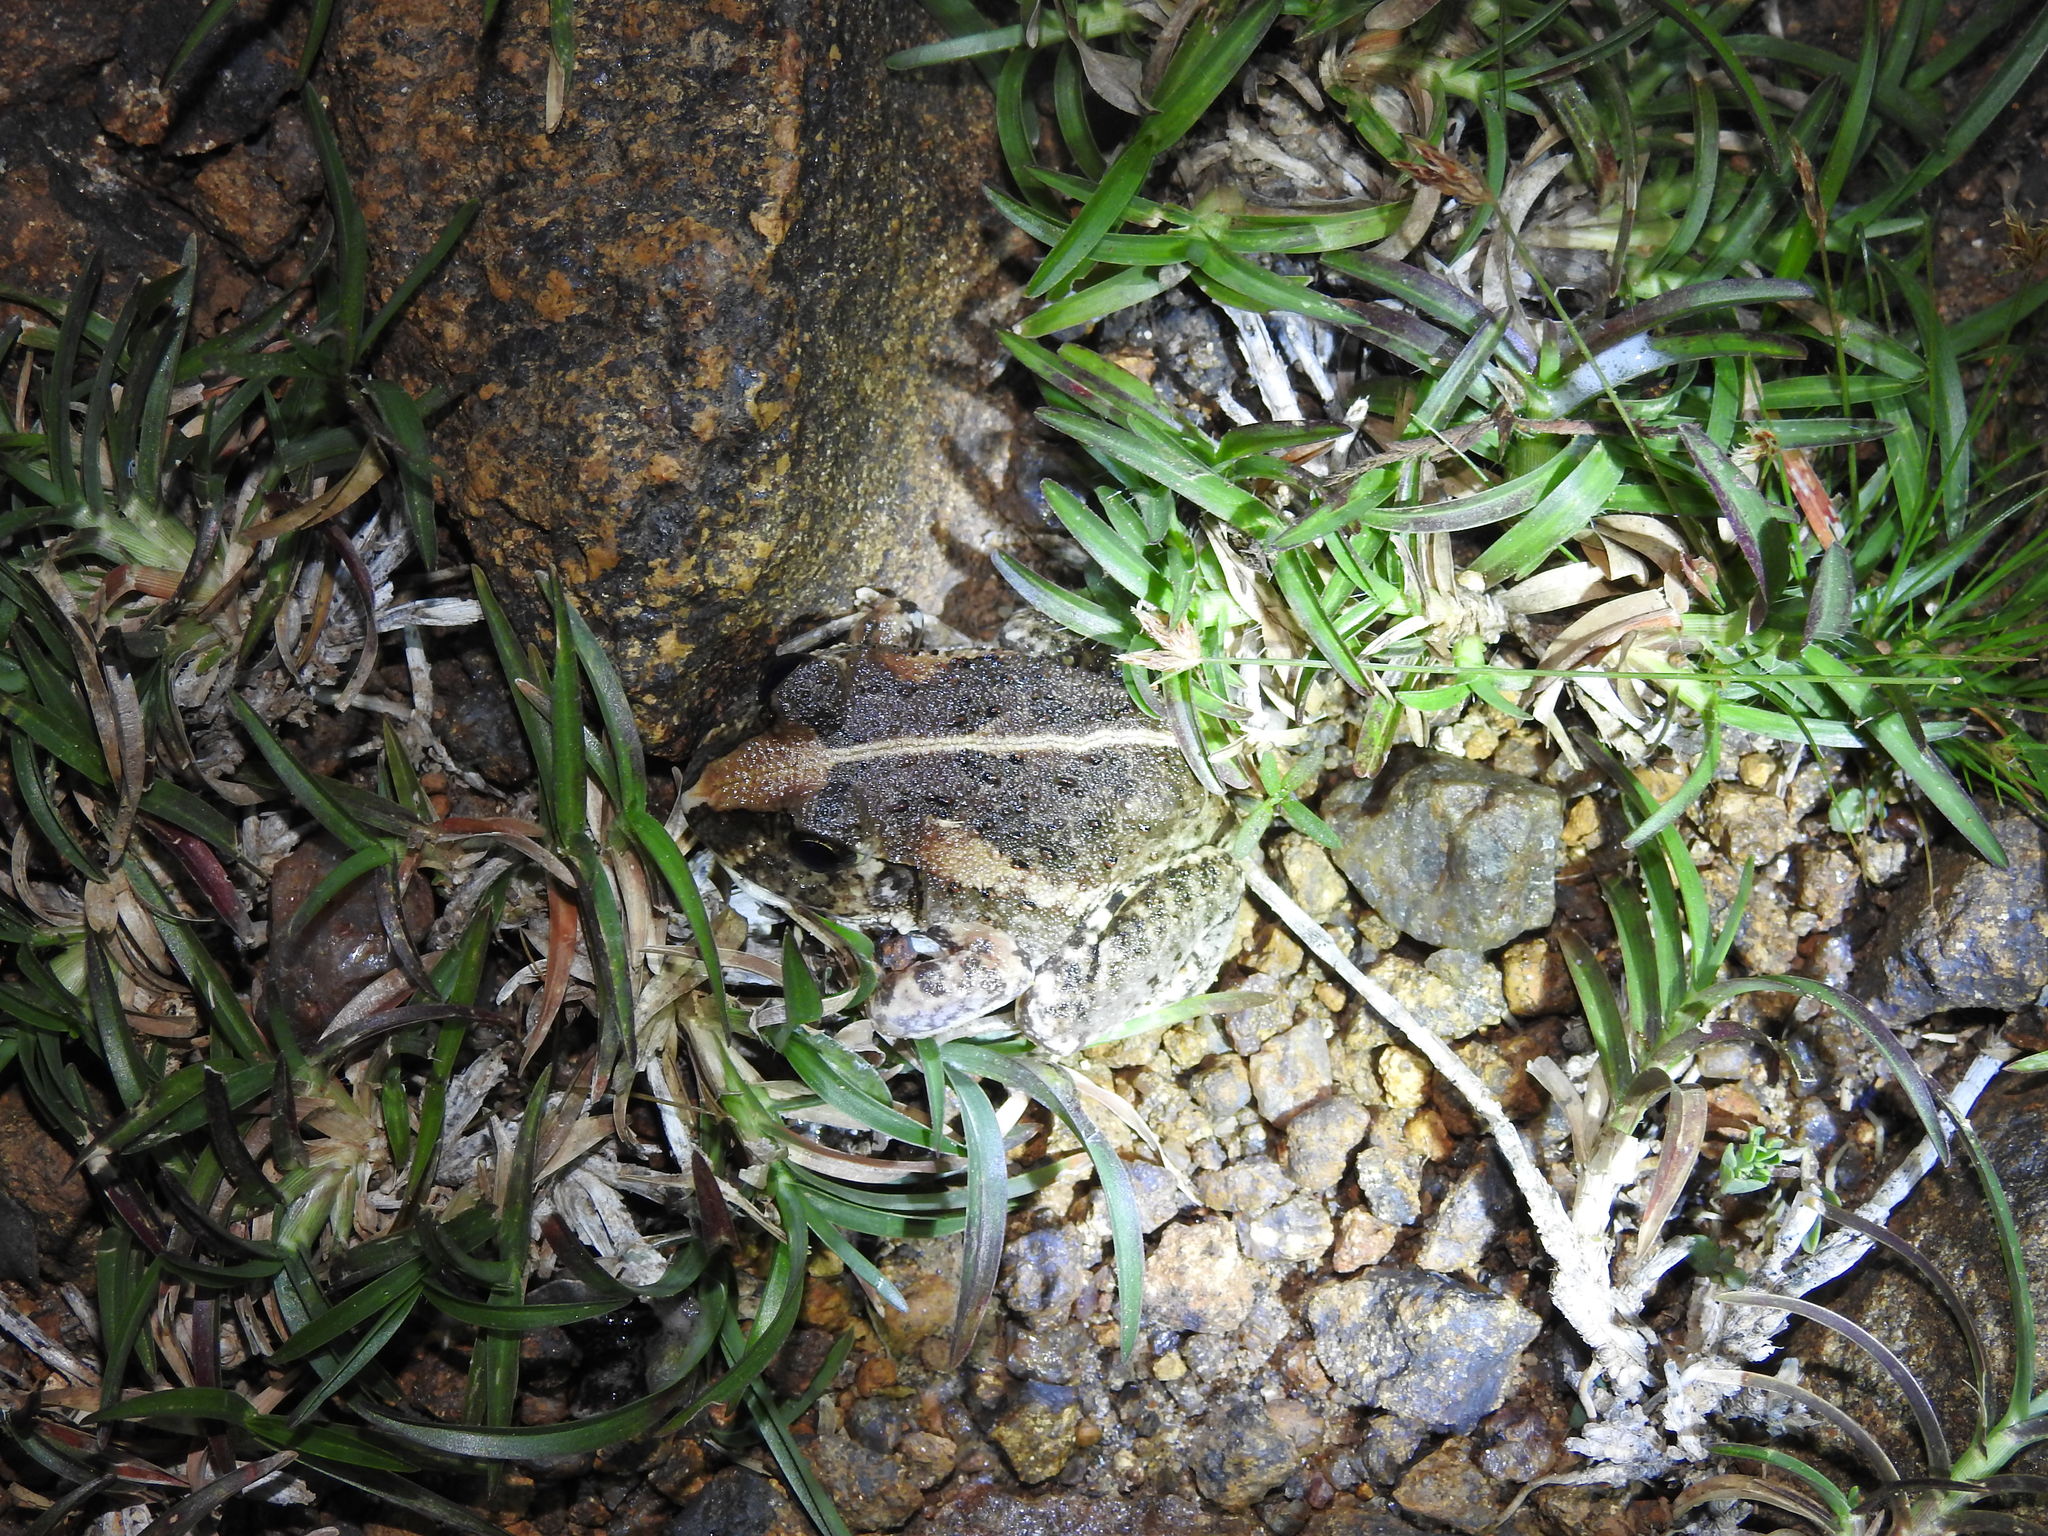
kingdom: Animalia
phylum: Chordata
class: Amphibia
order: Anura
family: Dicroglossidae
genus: Sphaerotheca
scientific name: Sphaerotheca breviceps
